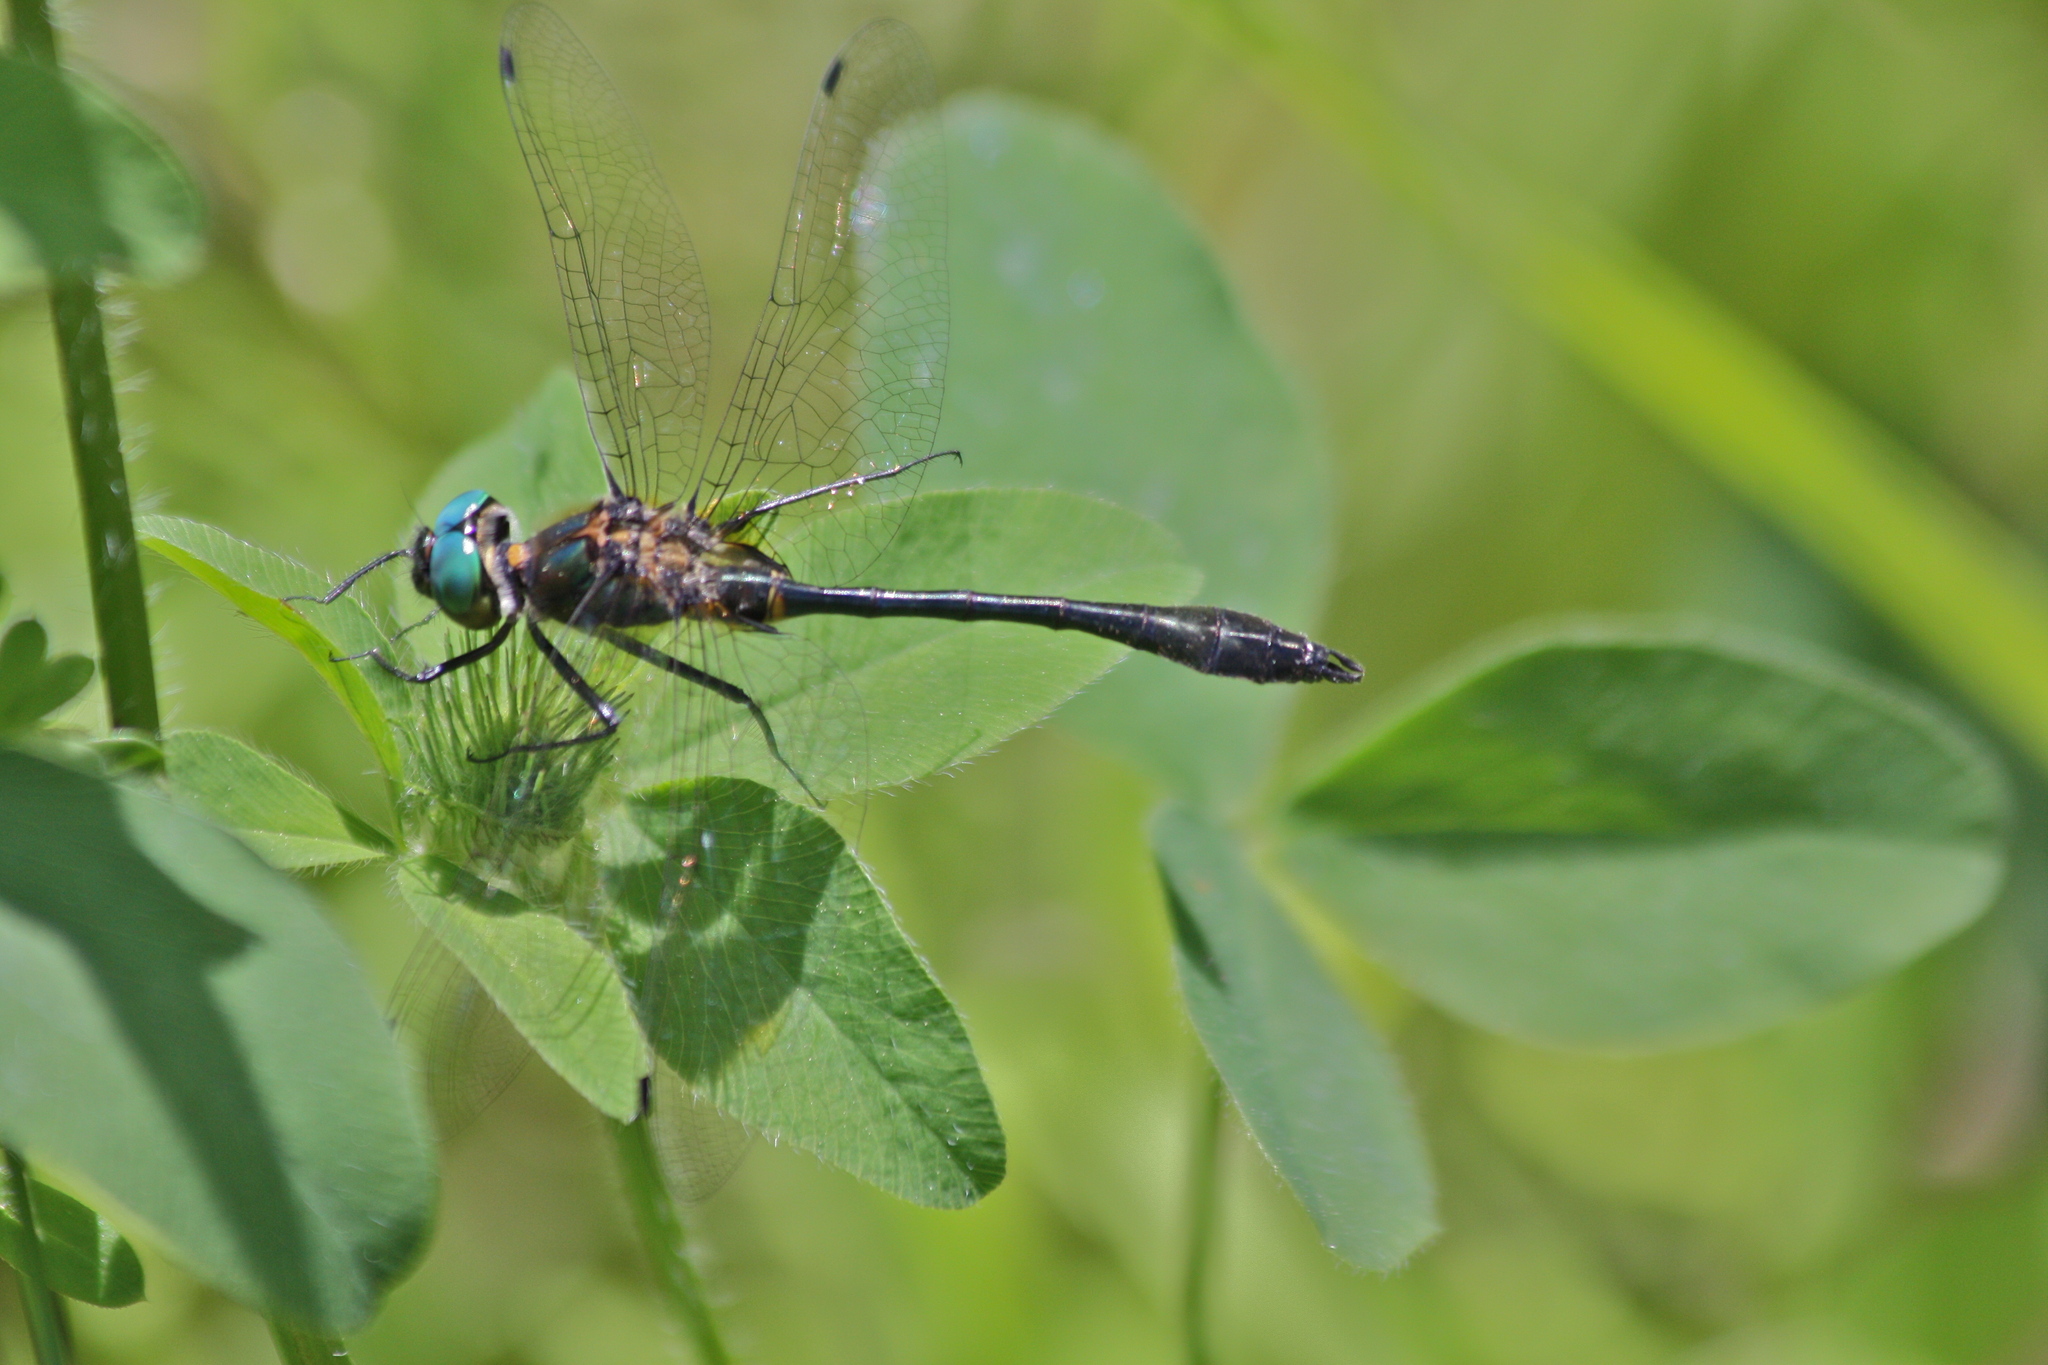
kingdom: Animalia
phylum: Arthropoda
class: Insecta
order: Odonata
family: Corduliidae
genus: Dorocordulia
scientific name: Dorocordulia libera
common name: Racket-tailed emerald
